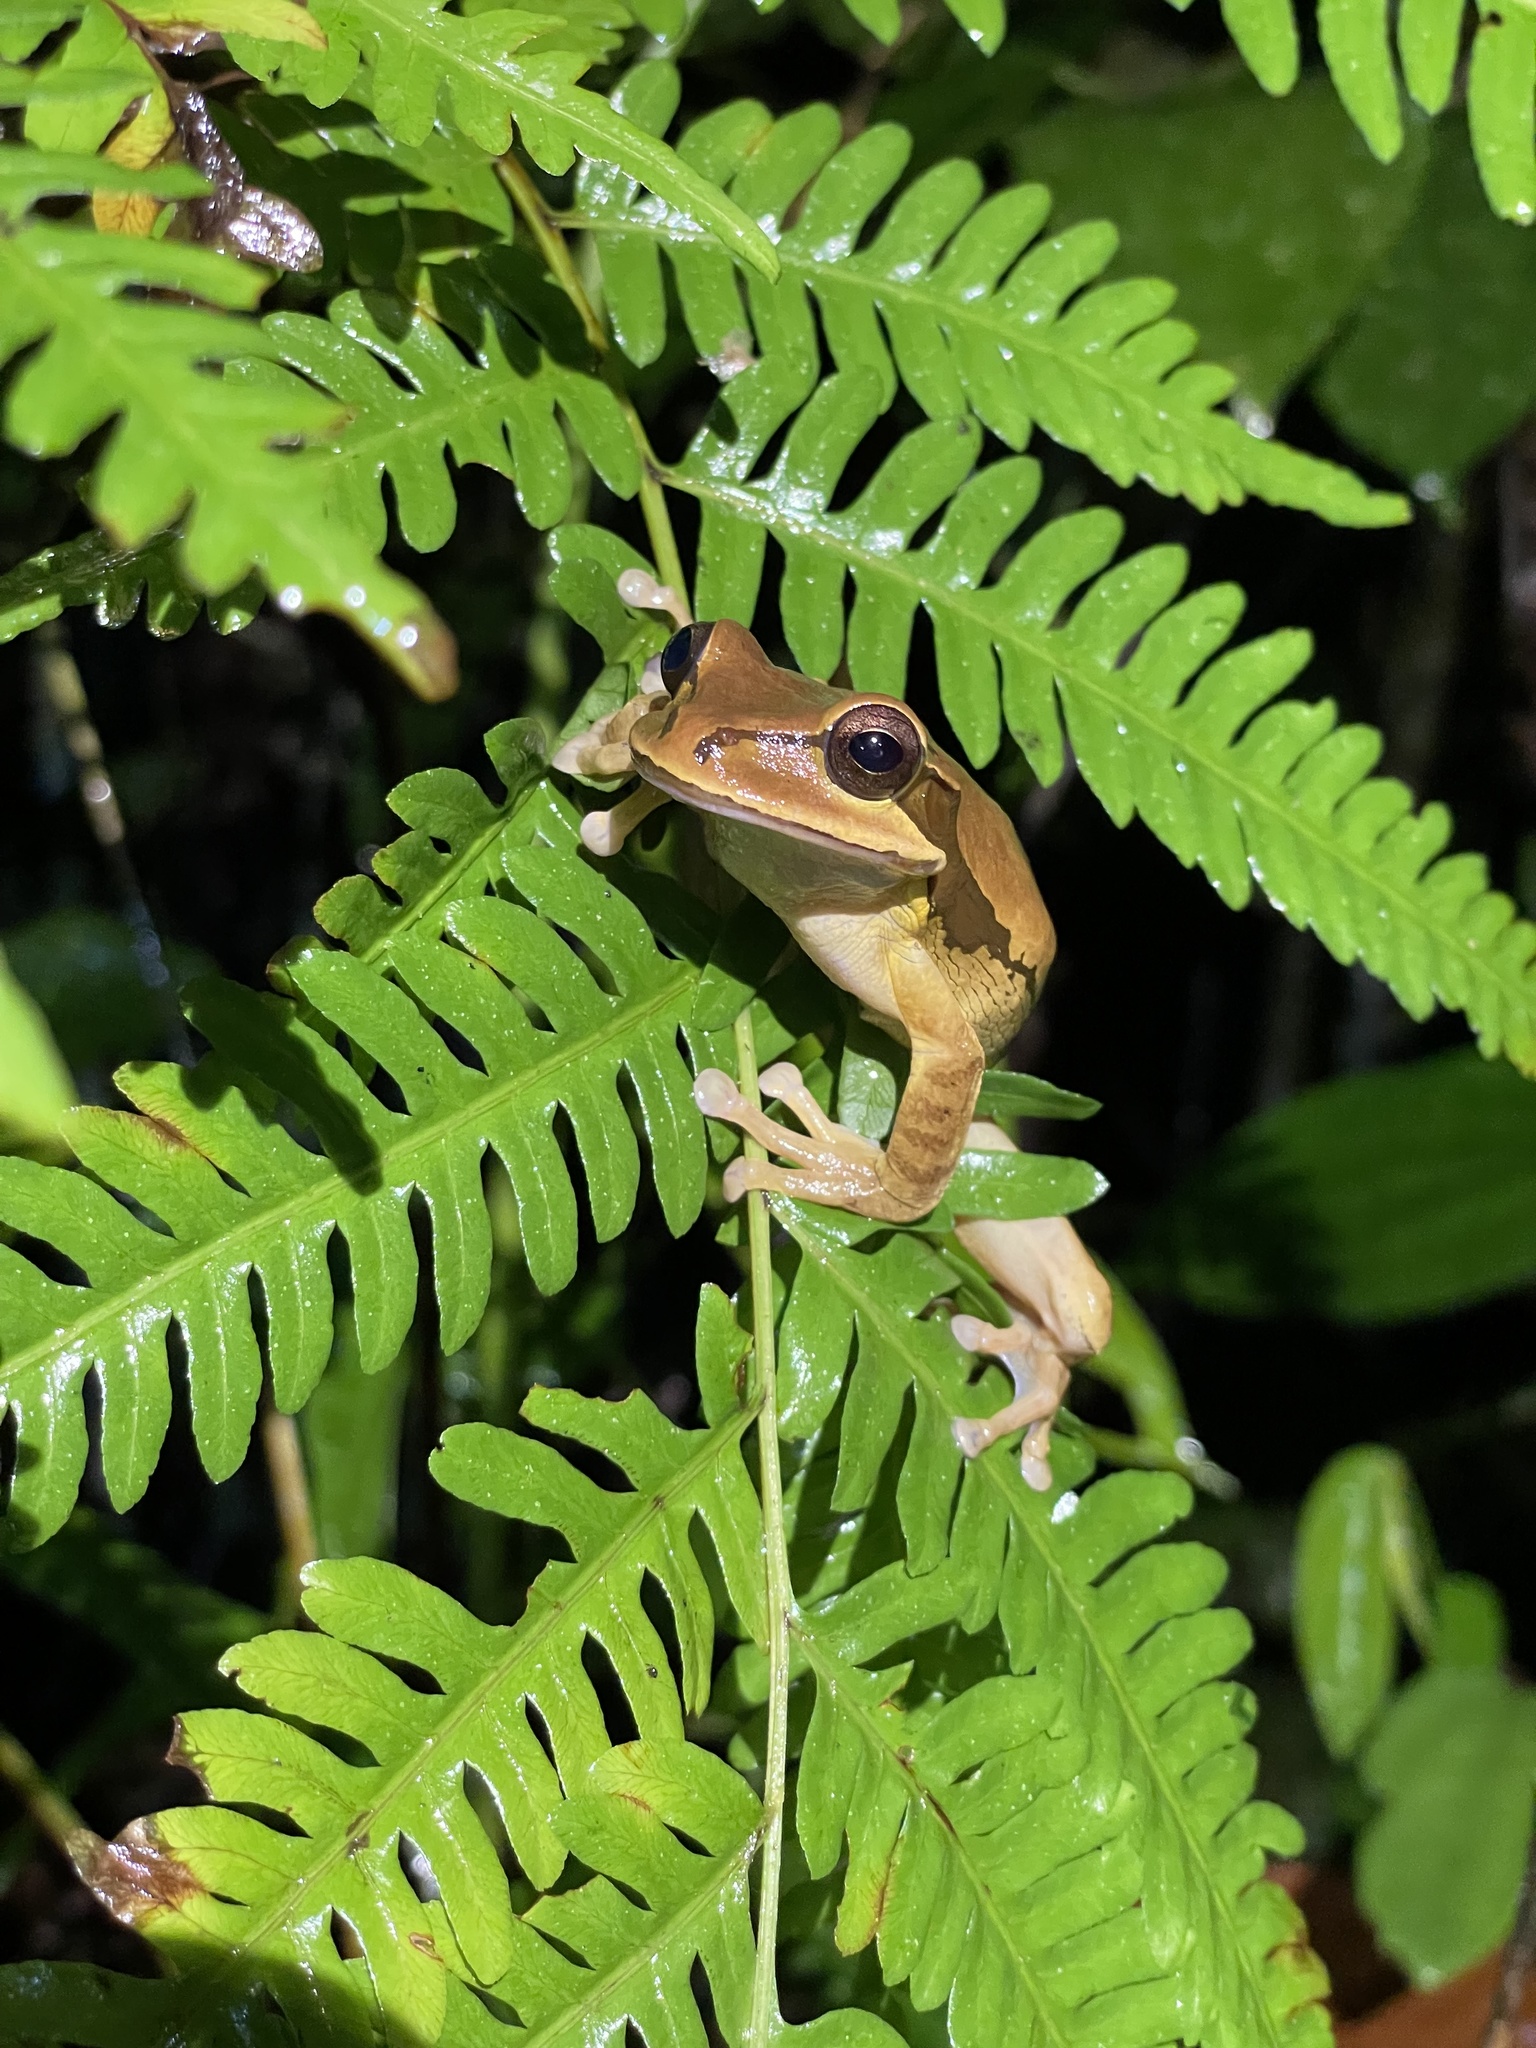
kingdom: Animalia
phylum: Chordata
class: Amphibia
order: Anura
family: Hylidae
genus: Smilisca
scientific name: Smilisca phaeota
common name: Central american smilisca
